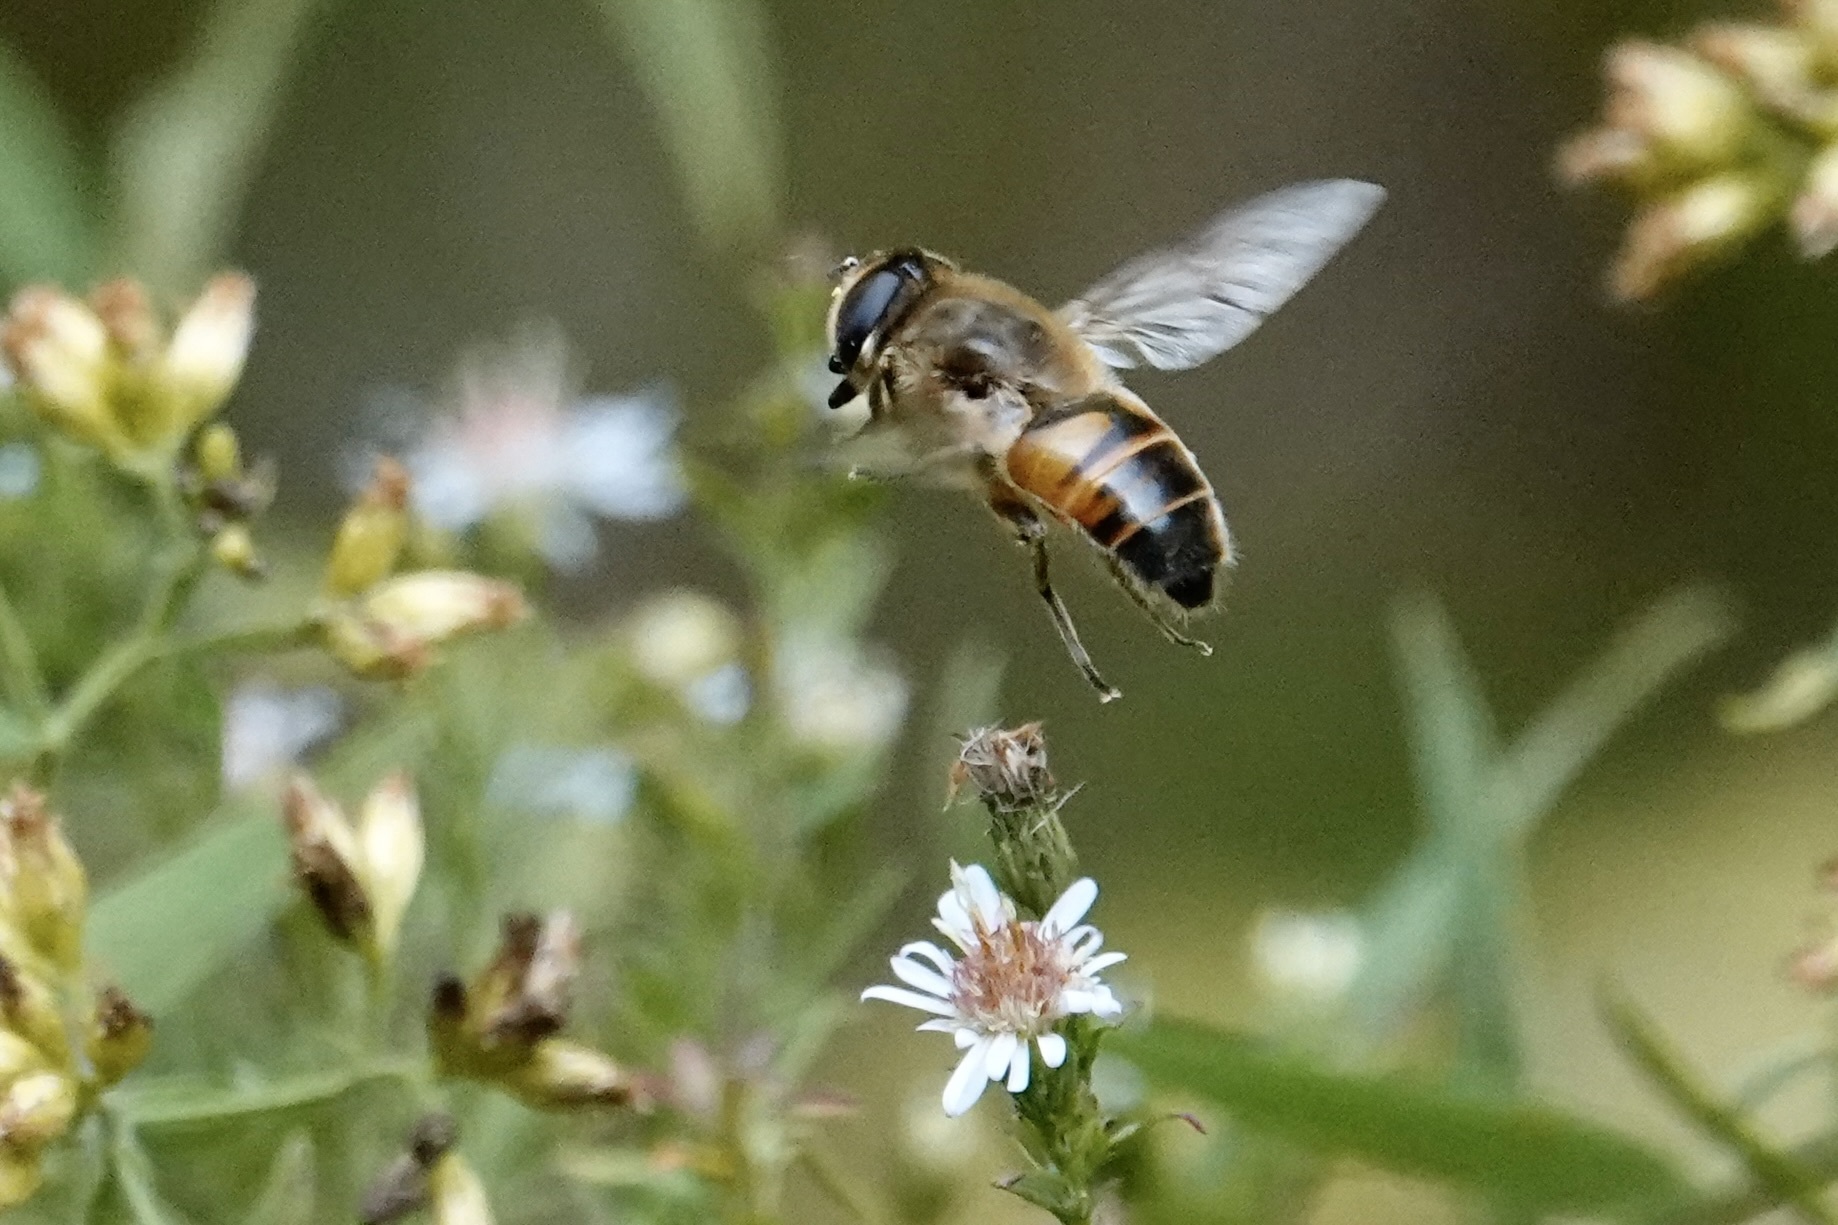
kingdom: Animalia
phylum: Arthropoda
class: Insecta
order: Diptera
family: Syrphidae
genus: Eristalis
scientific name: Eristalis tenax
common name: Drone fly
